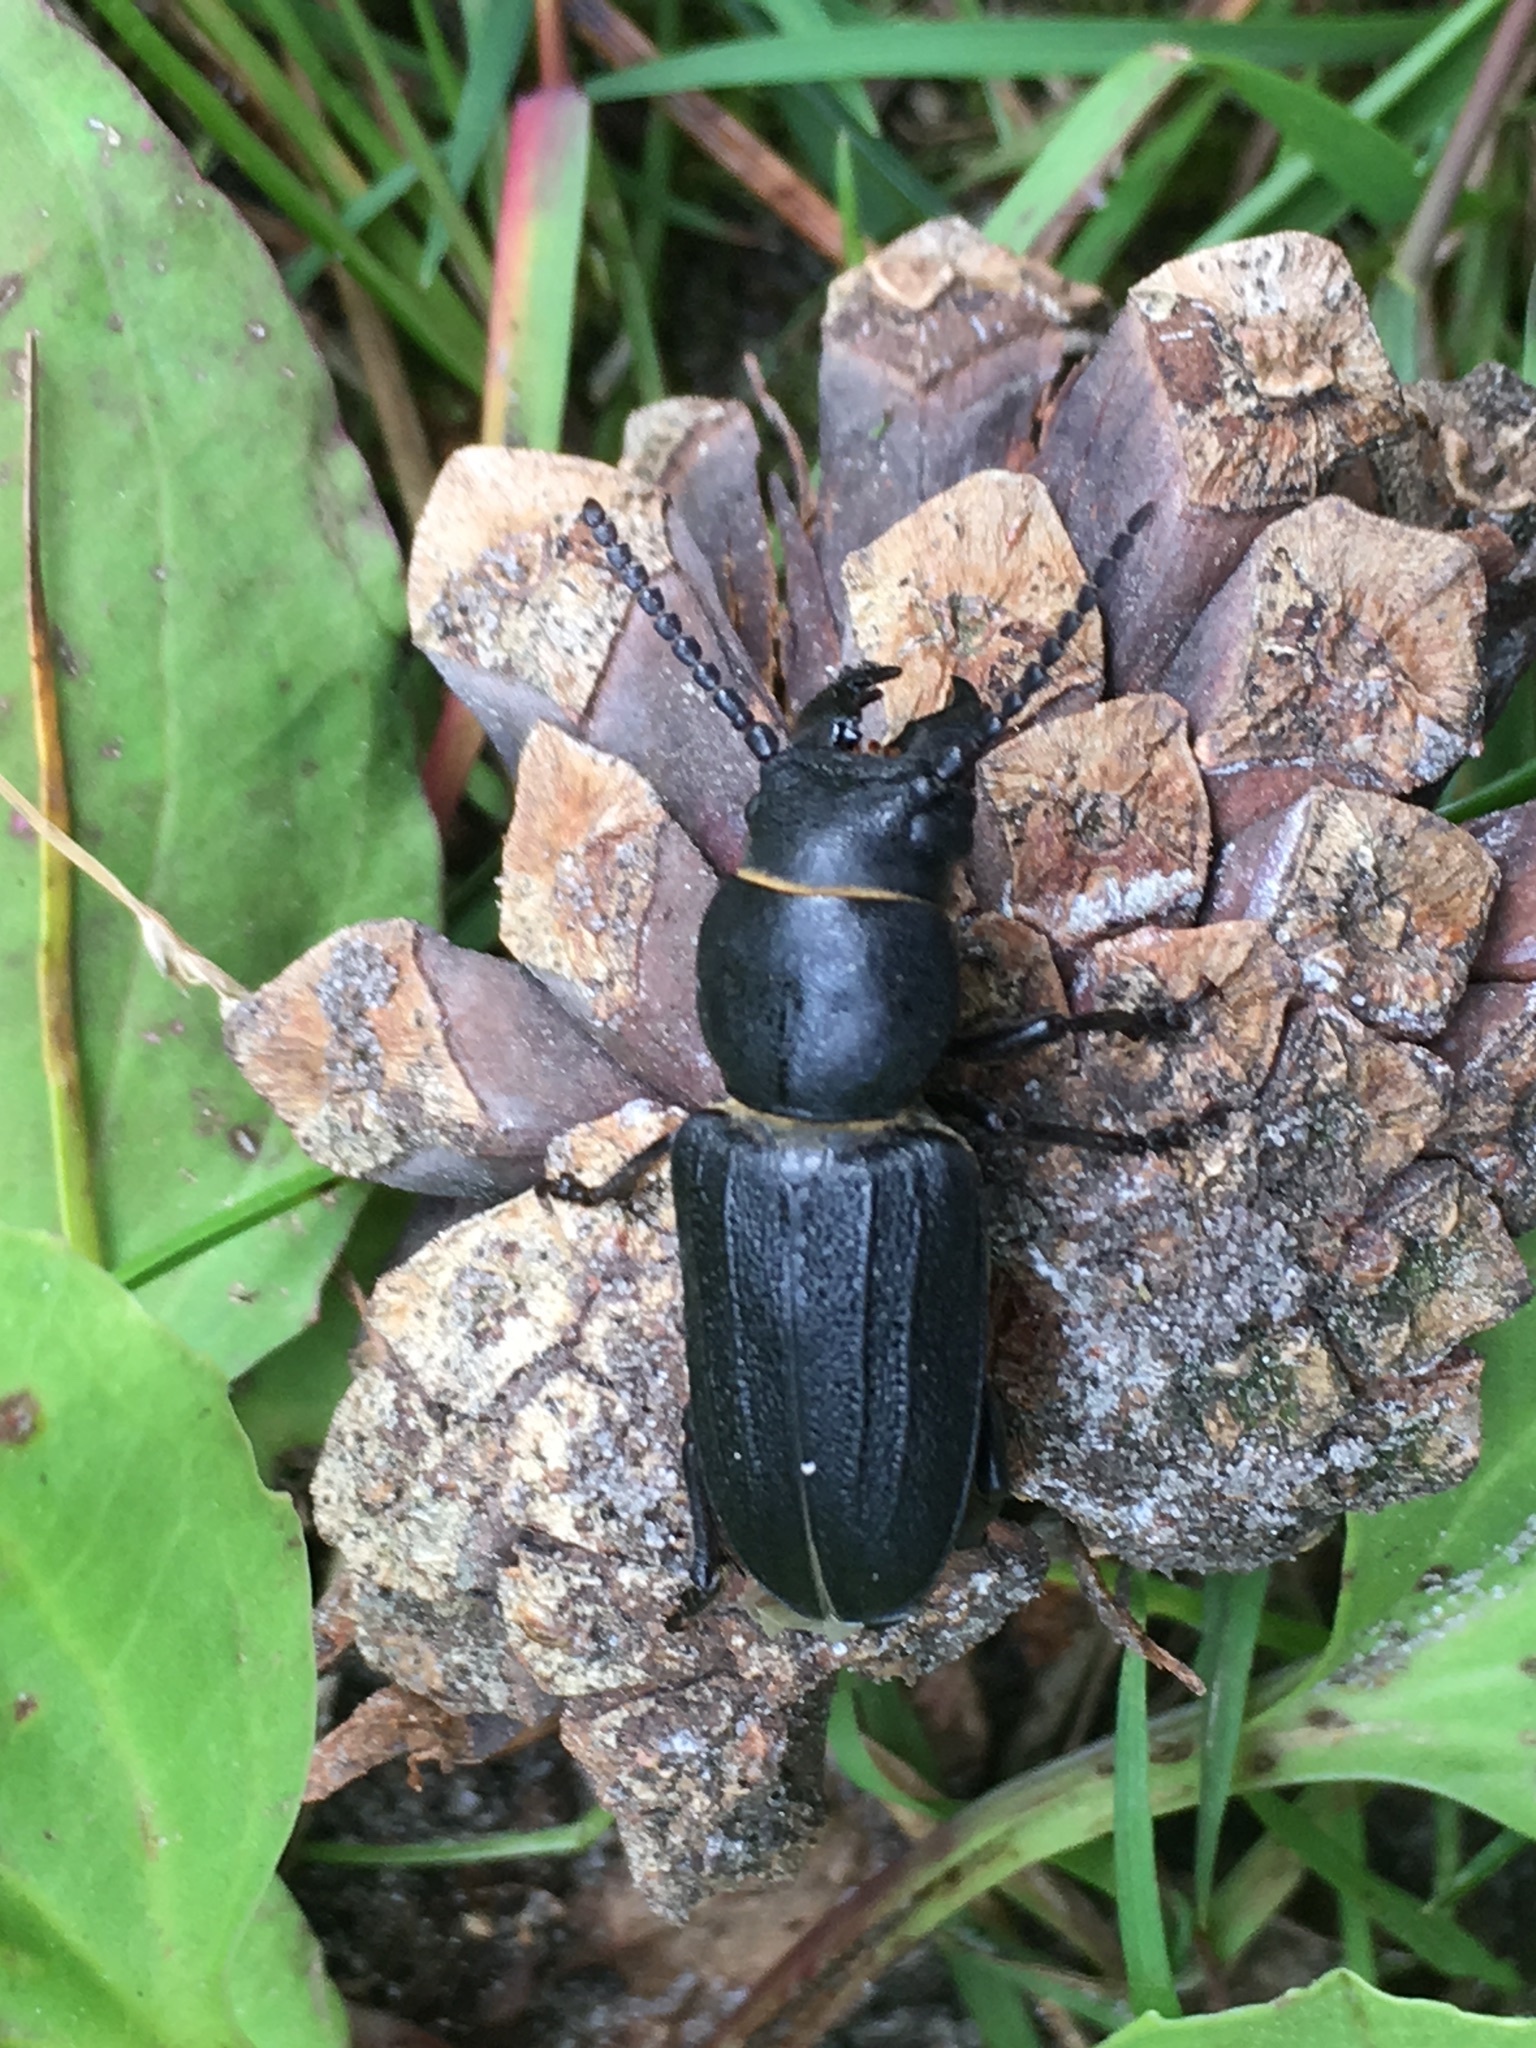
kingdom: Animalia
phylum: Arthropoda
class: Insecta
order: Coleoptera
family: Cerambycidae
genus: Spondylis
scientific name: Spondylis buprestoides
